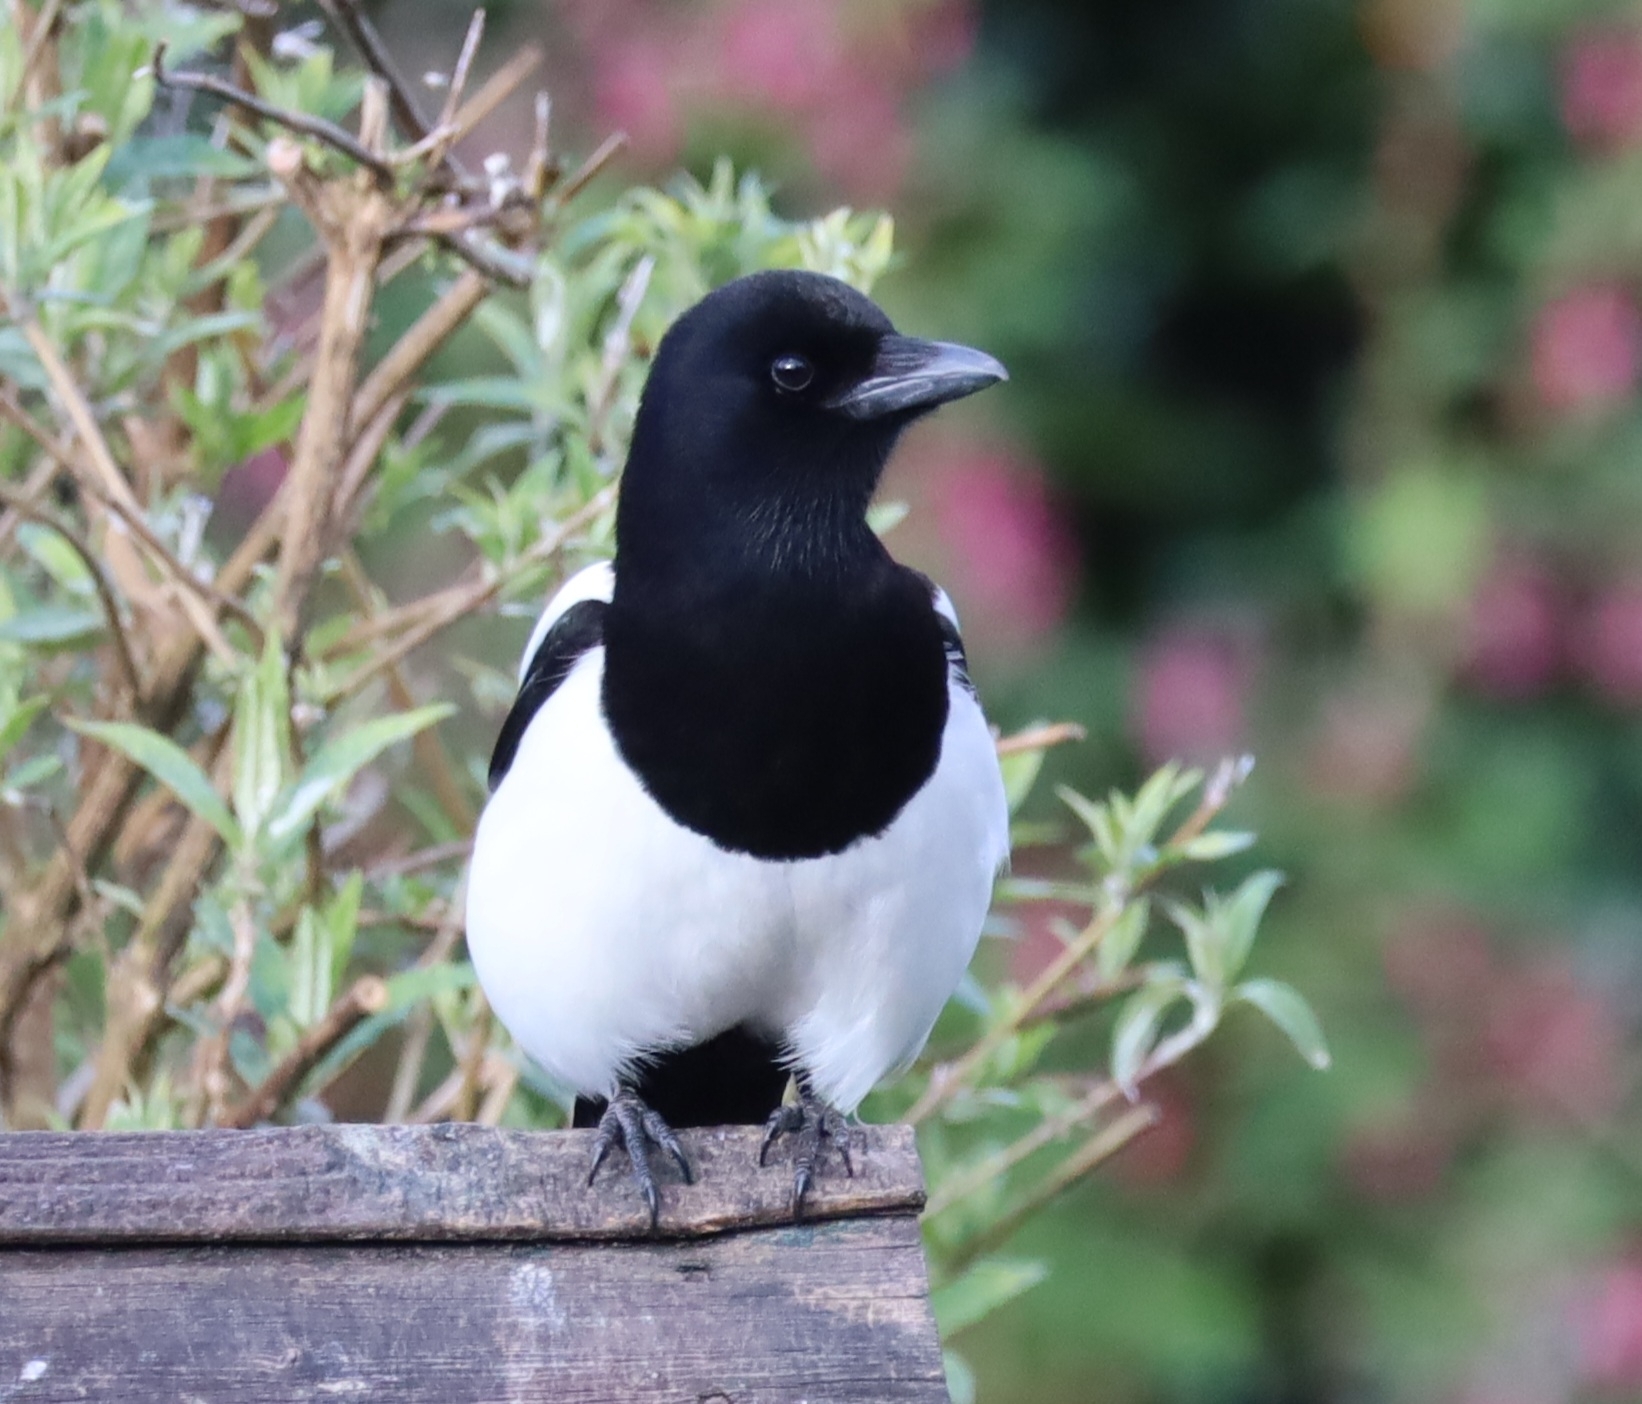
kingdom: Animalia
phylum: Chordata
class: Aves
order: Passeriformes
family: Corvidae
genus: Pica
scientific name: Pica pica
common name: Eurasian magpie
